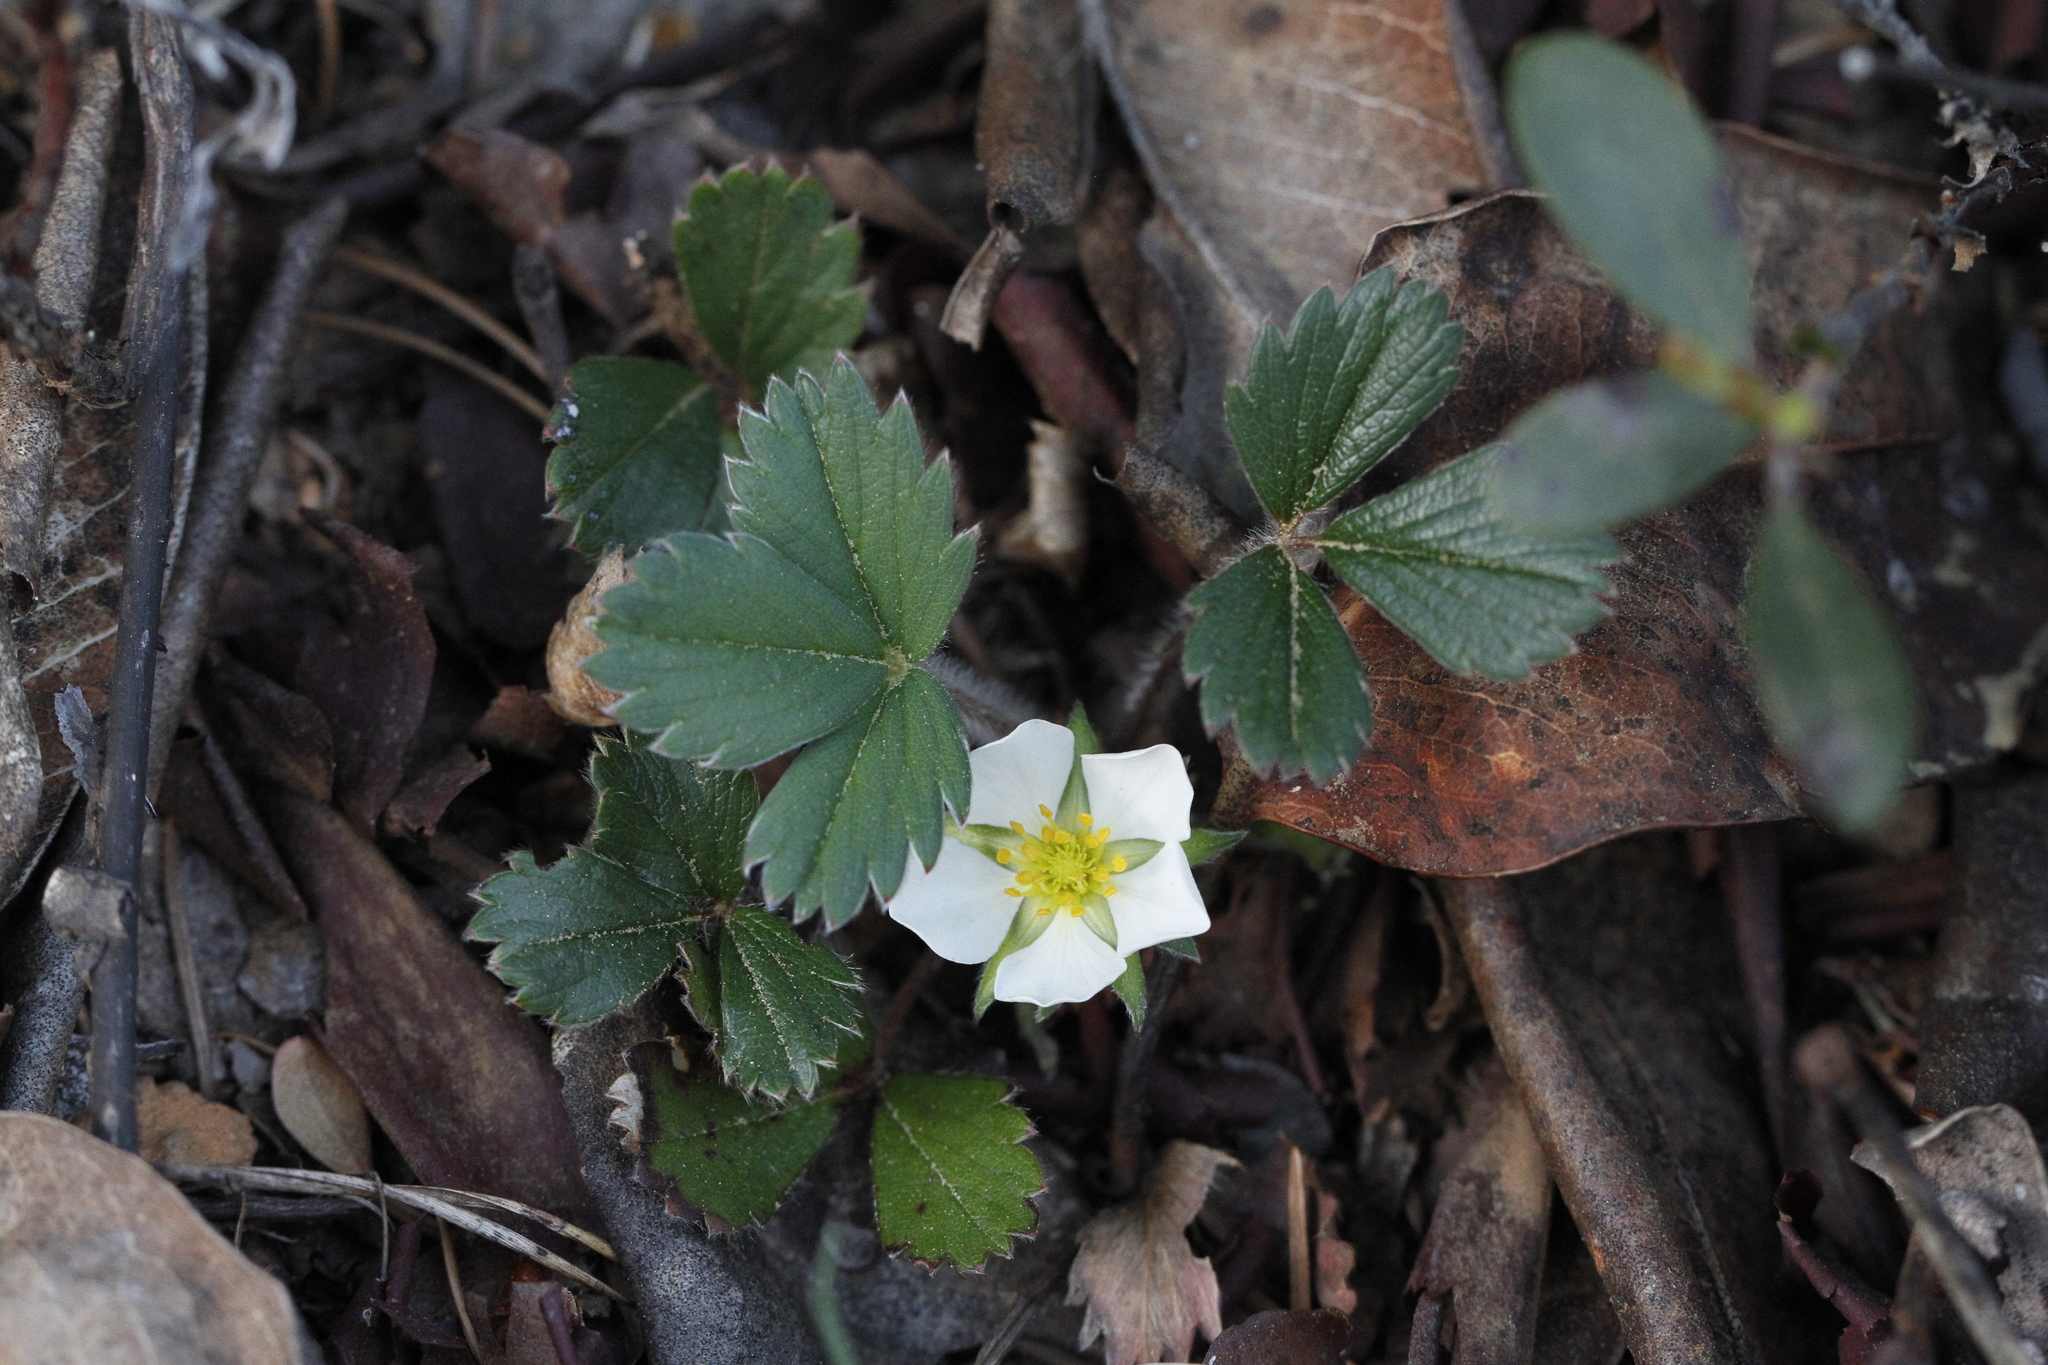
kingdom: Plantae
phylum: Tracheophyta
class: Magnoliopsida
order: Rosales
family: Rosaceae
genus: Fragaria
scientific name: Fragaria chiloensis
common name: Beach strawberry
